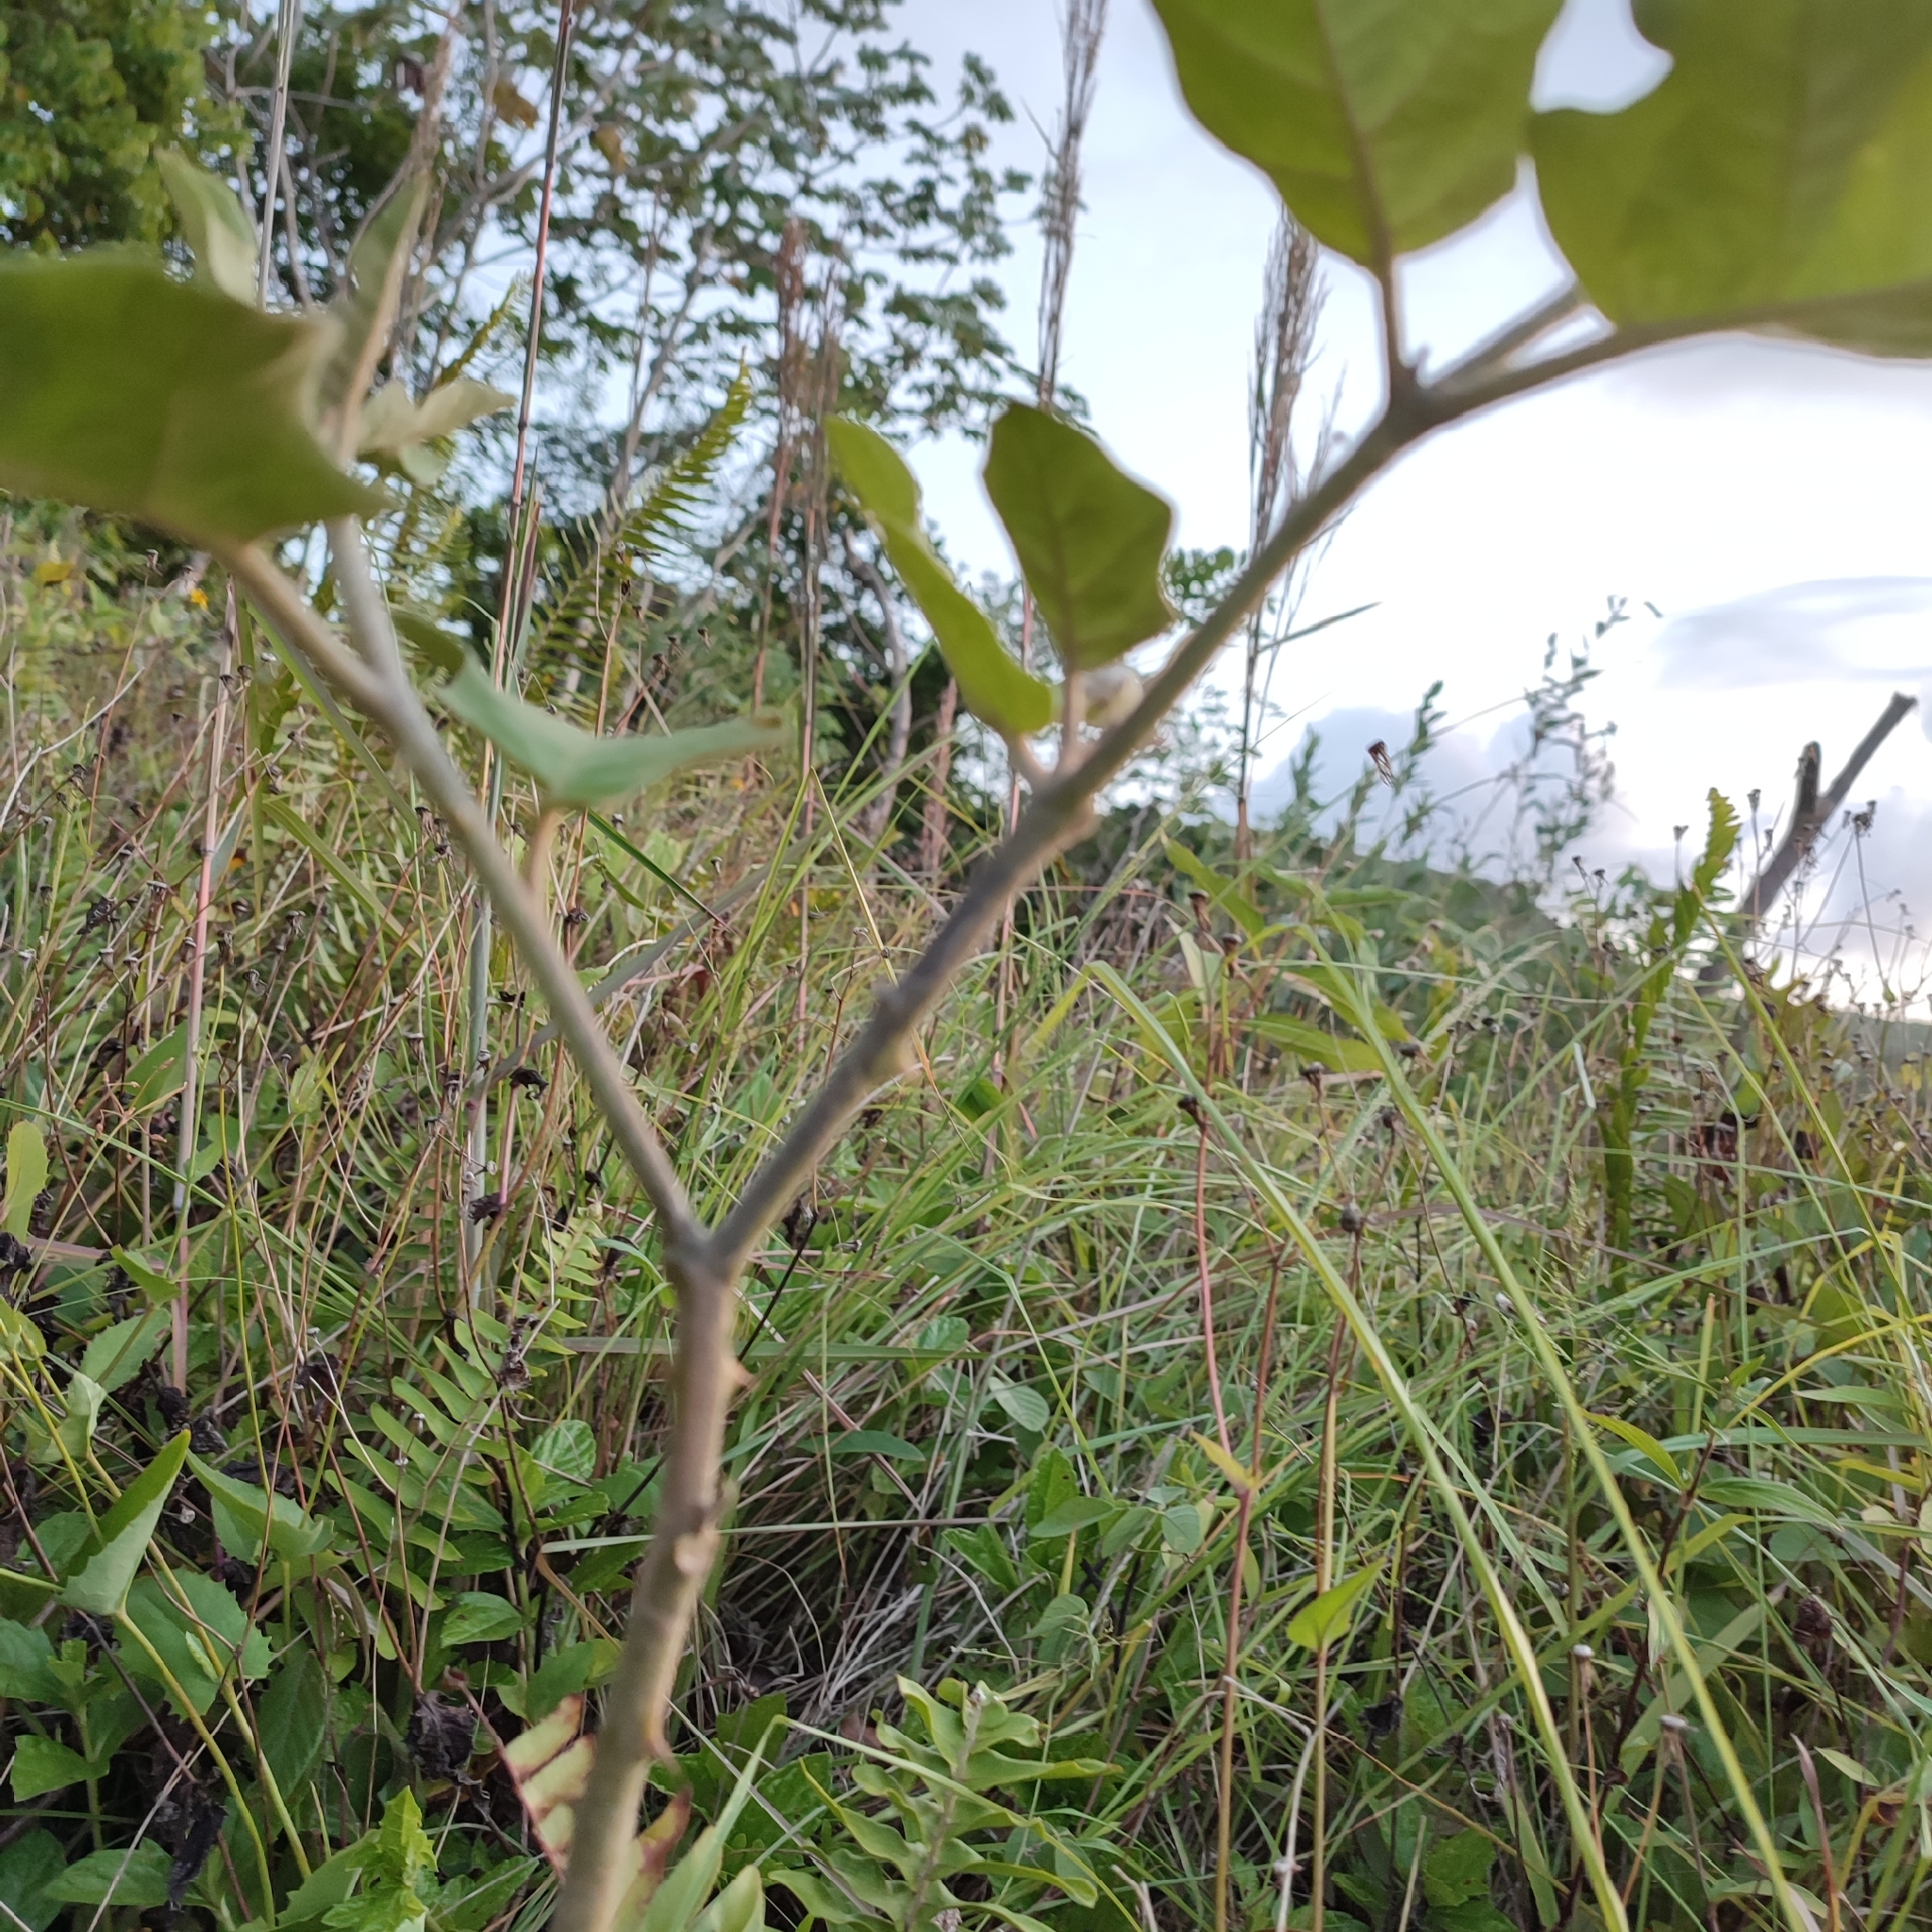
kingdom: Plantae
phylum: Tracheophyta
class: Magnoliopsida
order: Solanales
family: Solanaceae
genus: Solanum
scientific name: Solanum torvum
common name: Turkey berry
